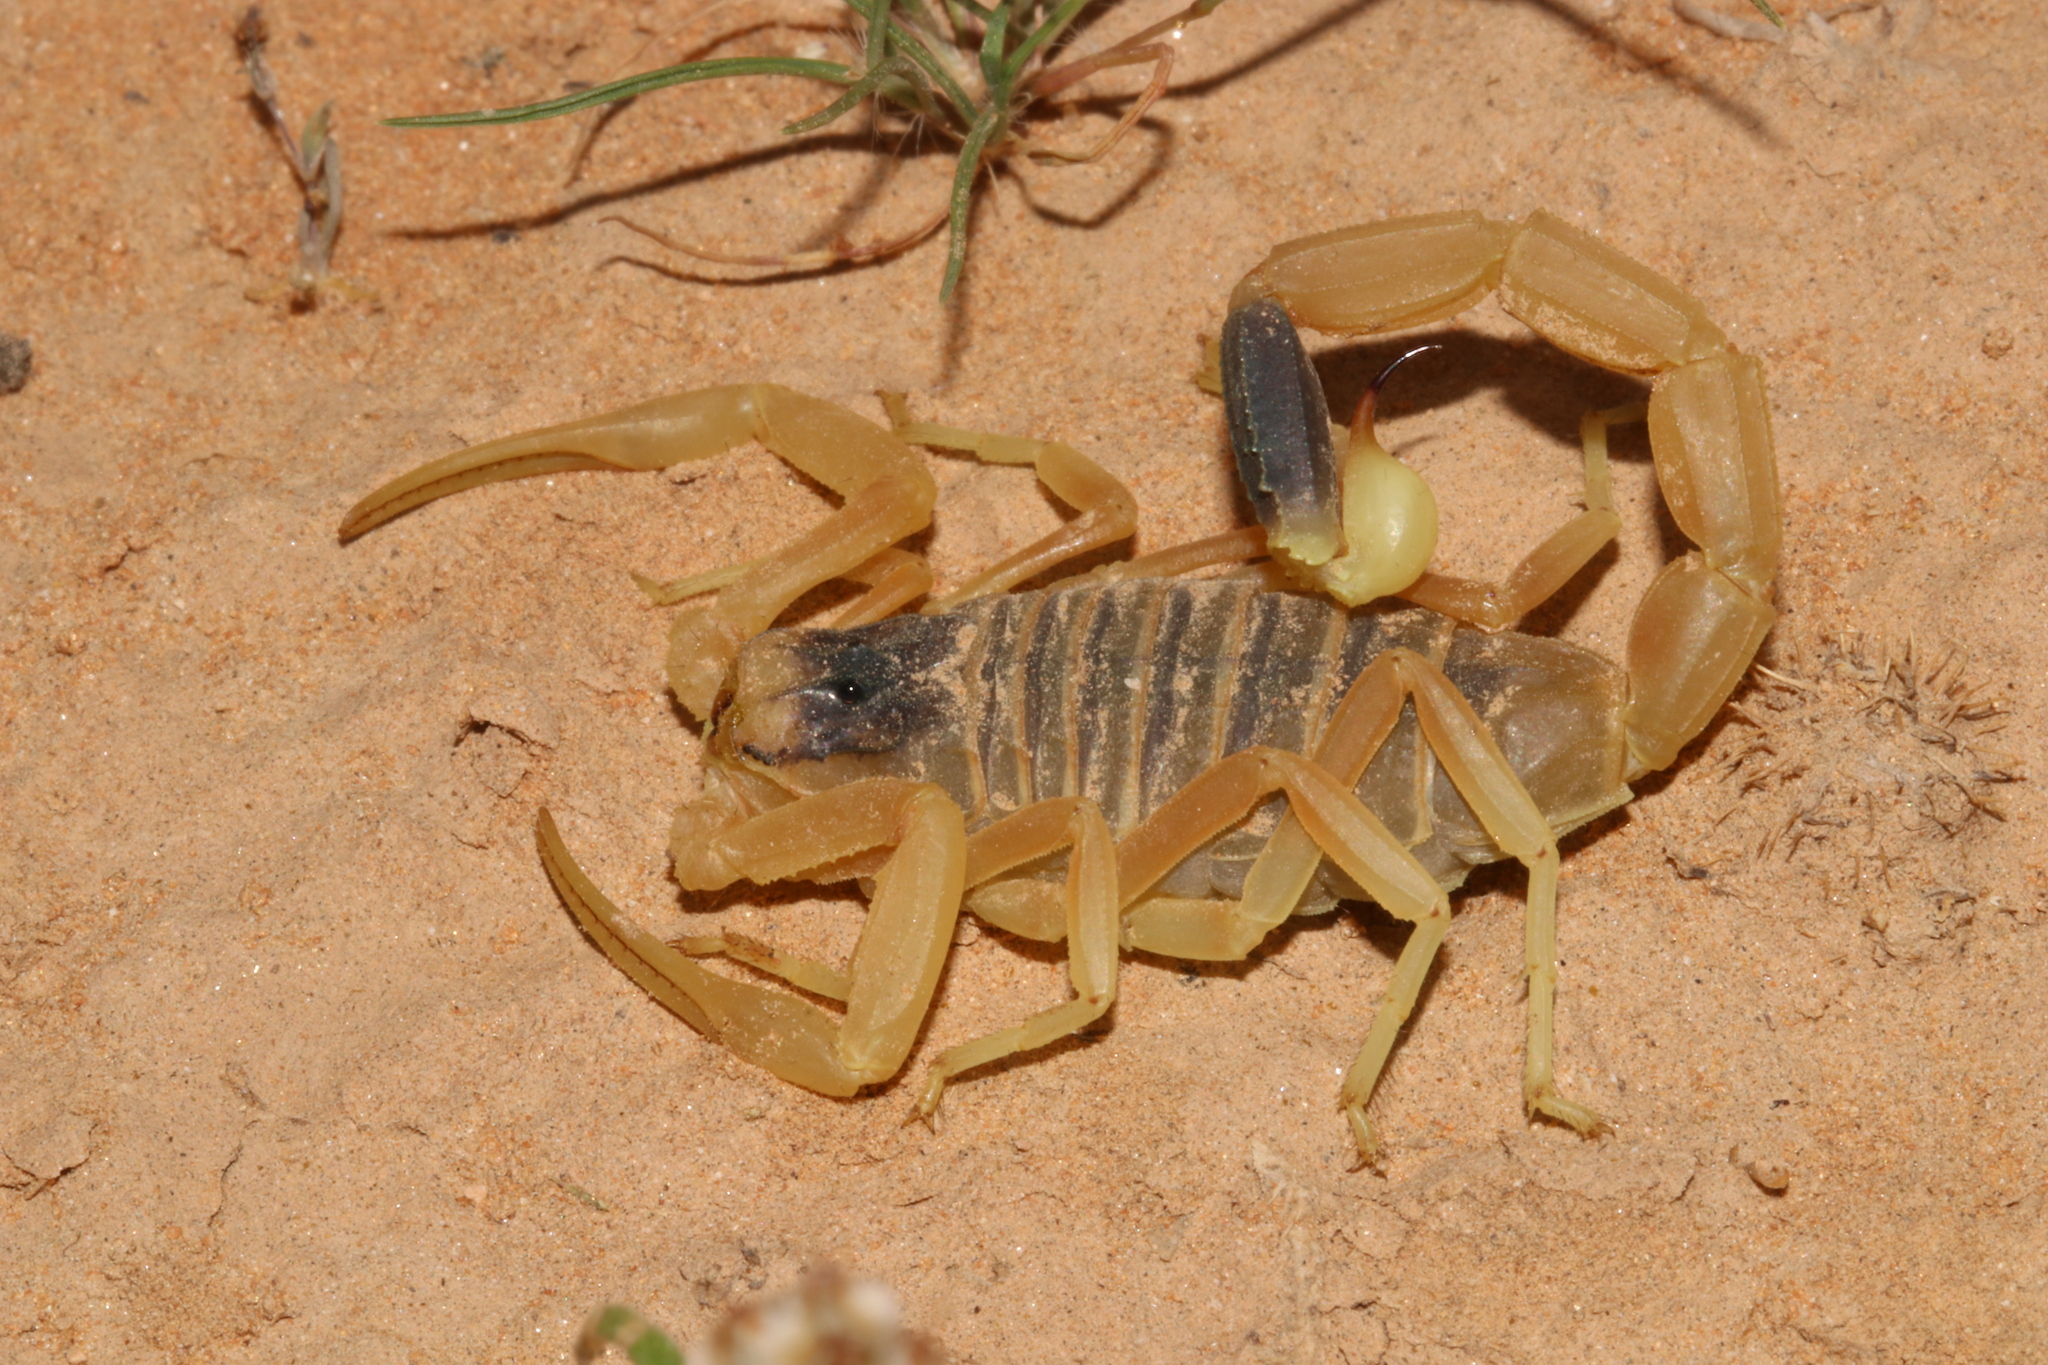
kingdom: Animalia
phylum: Arthropoda
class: Arachnida
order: Scorpiones
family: Buthidae
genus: Leiurus
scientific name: Leiurus arabicus
